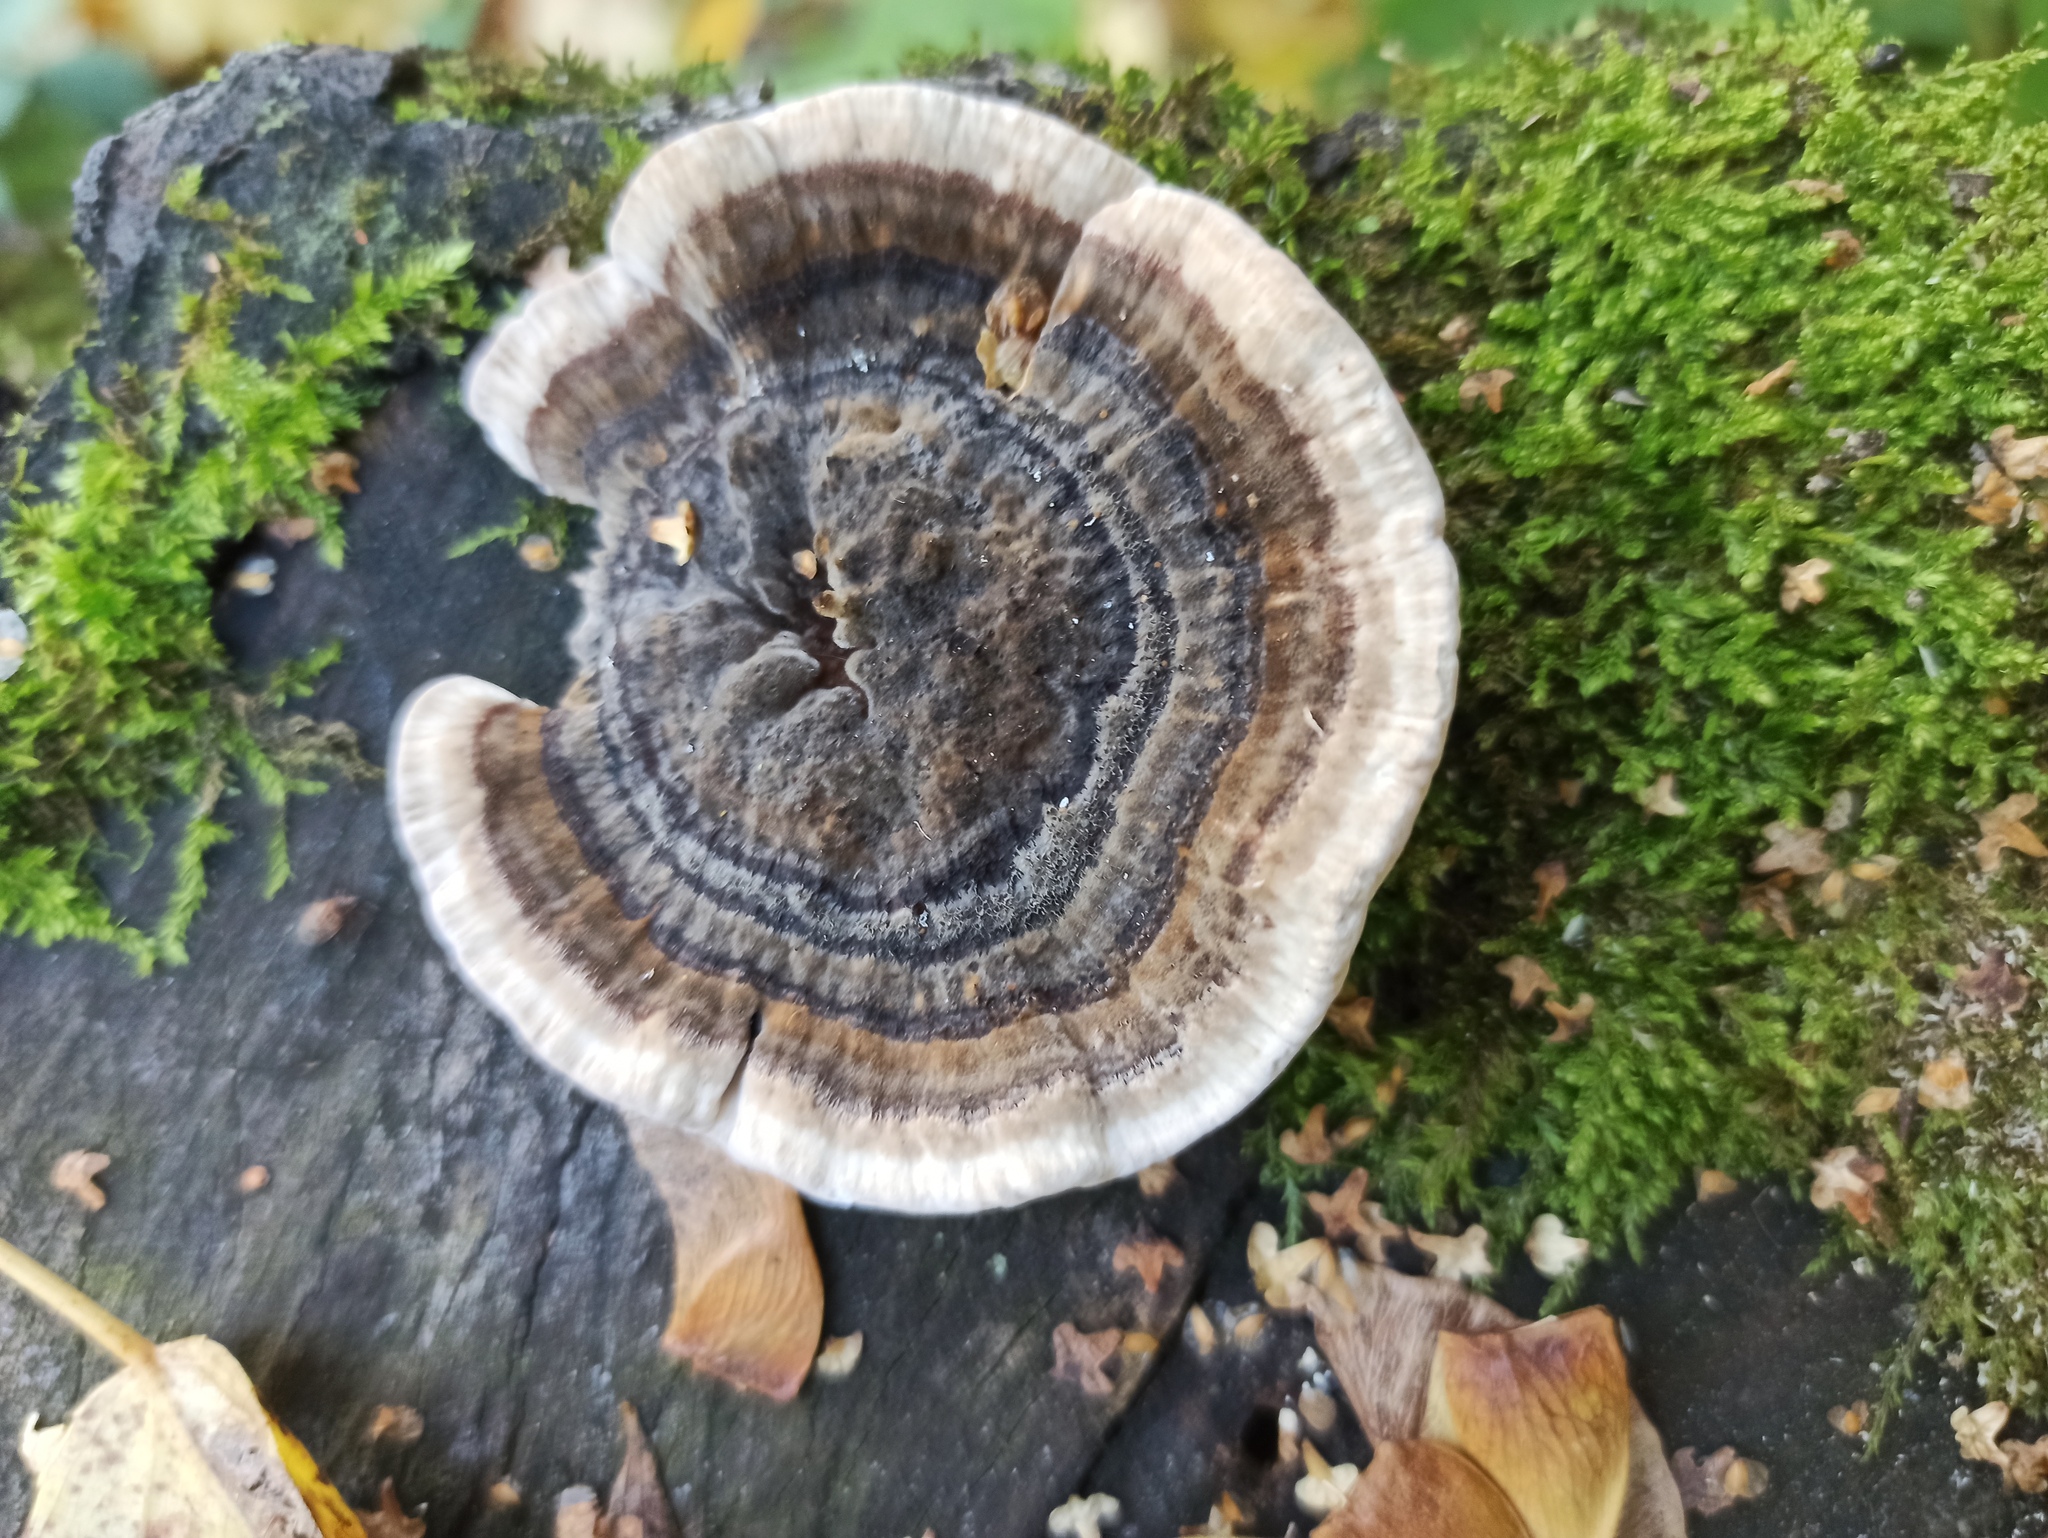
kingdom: Fungi
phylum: Basidiomycota
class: Agaricomycetes
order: Polyporales
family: Polyporaceae
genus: Trametes
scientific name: Trametes versicolor
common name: Turkeytail
